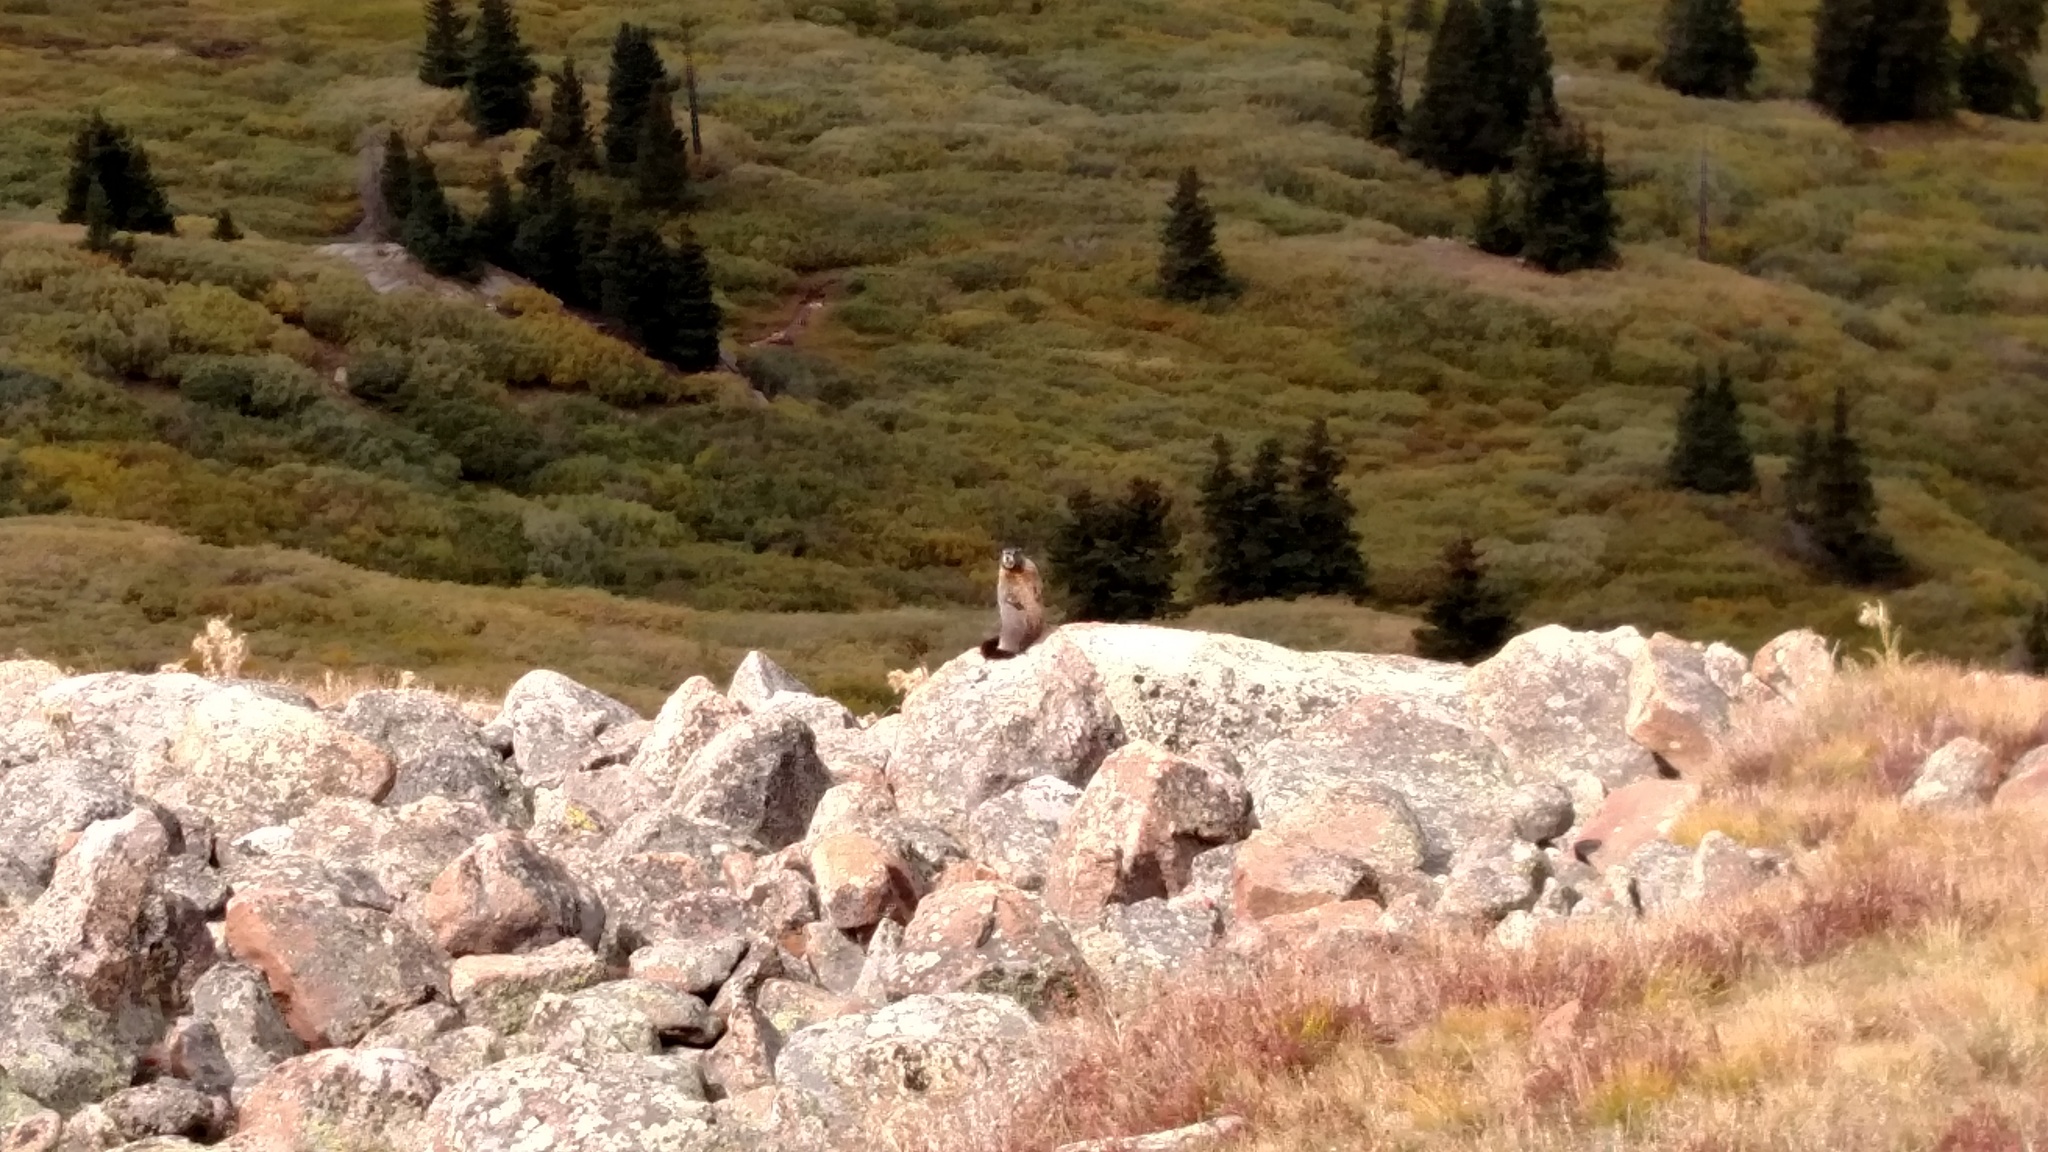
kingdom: Animalia
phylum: Chordata
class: Mammalia
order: Rodentia
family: Sciuridae
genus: Marmota
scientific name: Marmota flaviventris
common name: Yellow-bellied marmot
